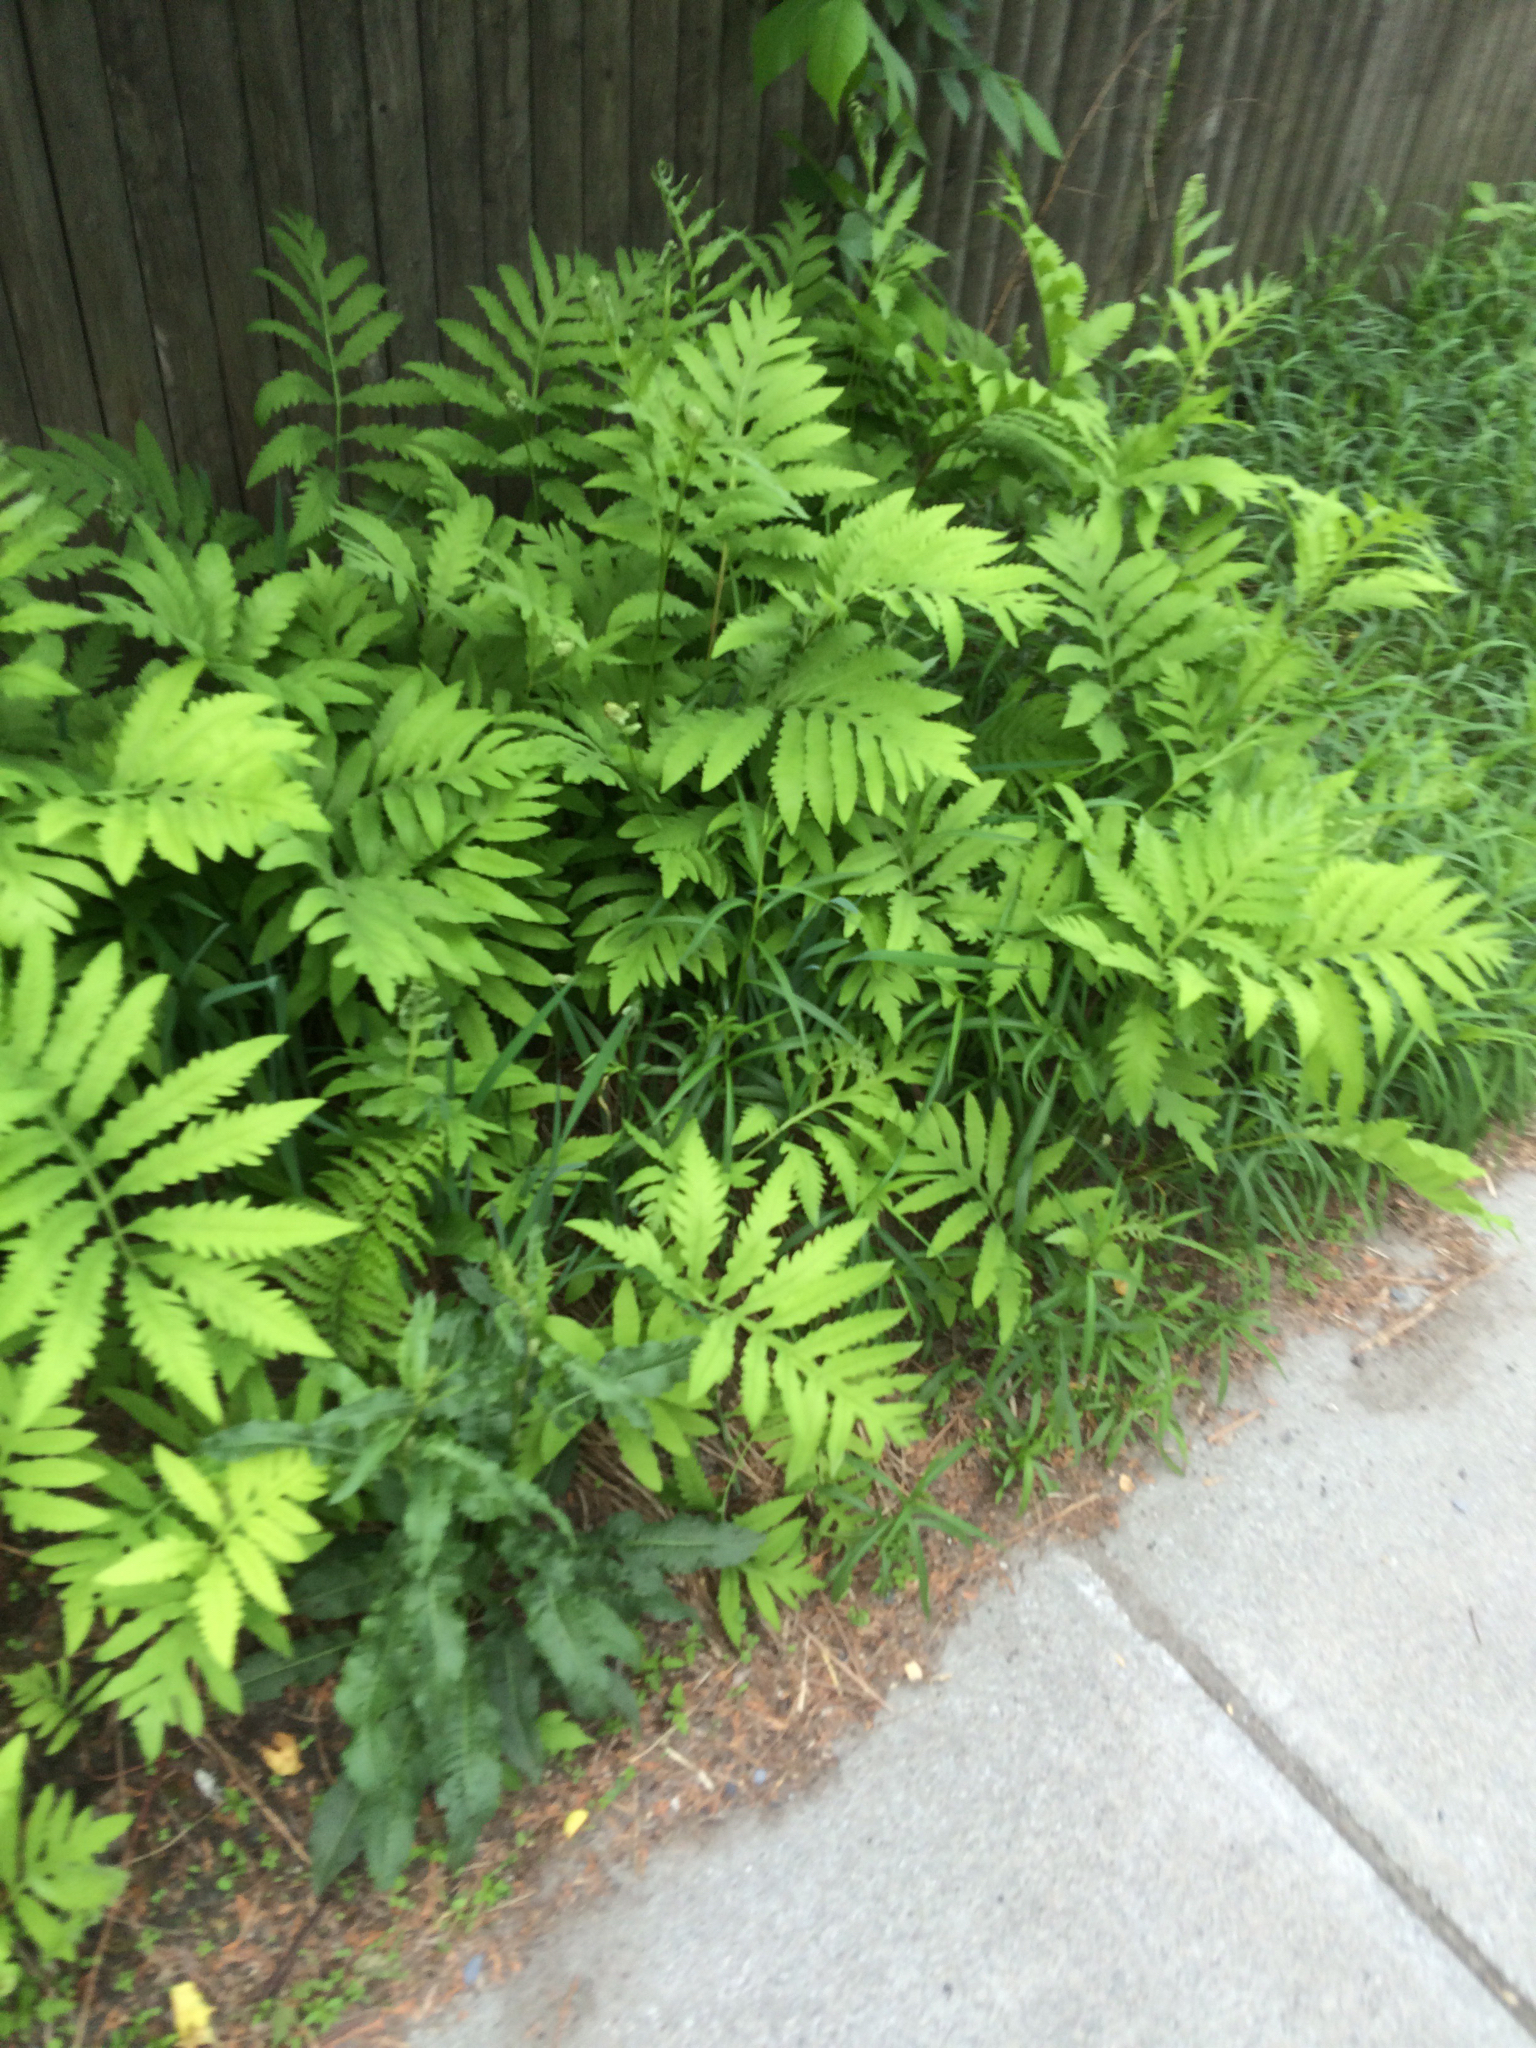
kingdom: Plantae
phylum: Tracheophyta
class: Polypodiopsida
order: Polypodiales
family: Onocleaceae
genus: Onoclea
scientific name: Onoclea sensibilis
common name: Sensitive fern
